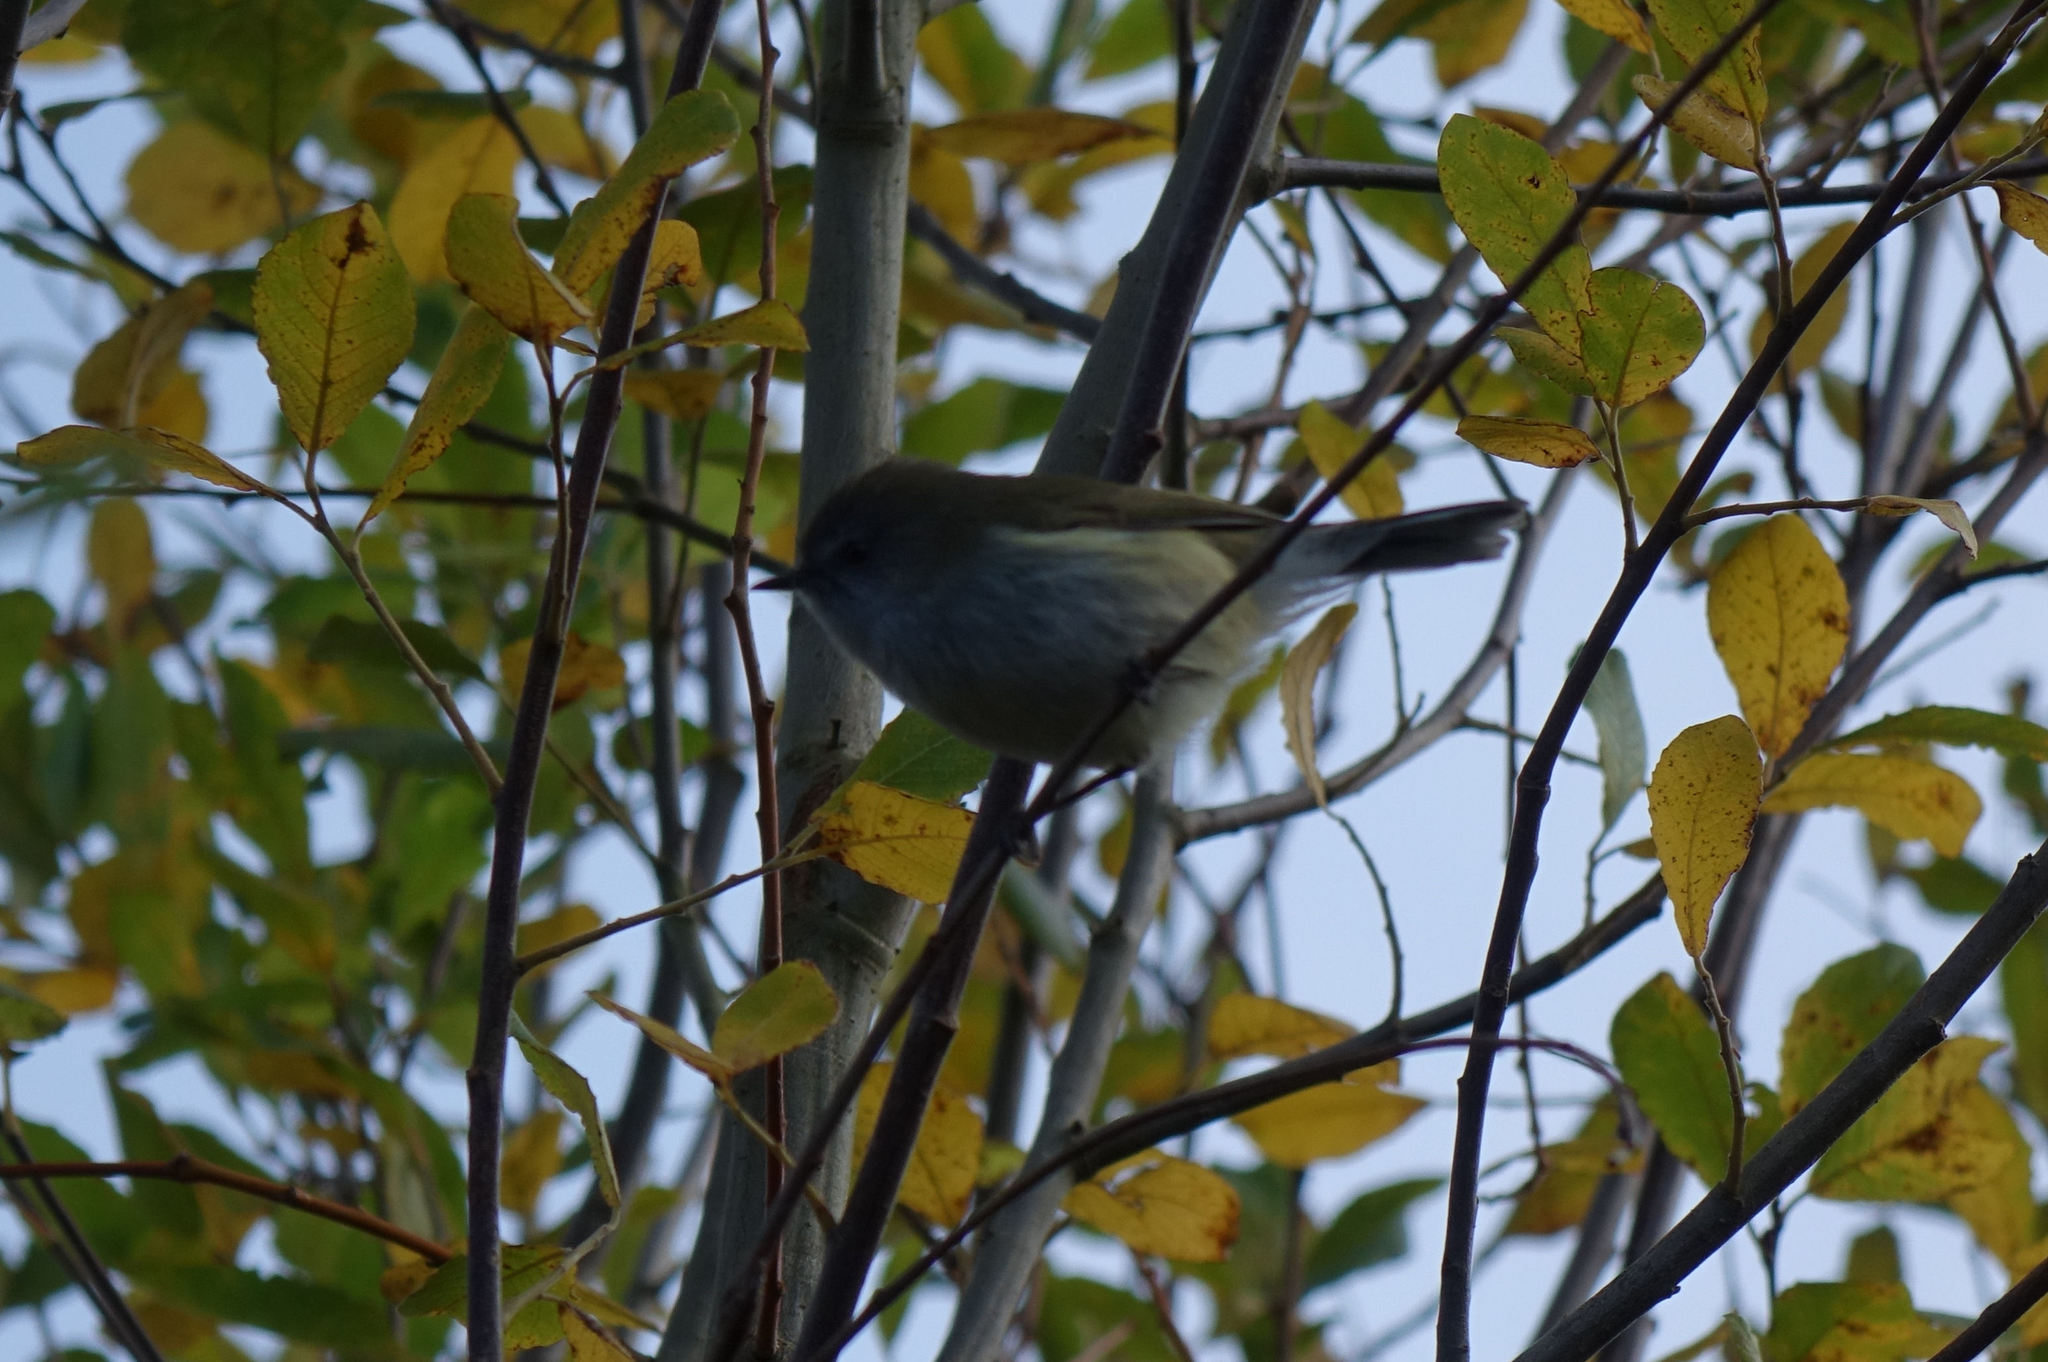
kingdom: Animalia
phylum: Chordata
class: Aves
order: Passeriformes
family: Acanthizidae
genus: Gerygone
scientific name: Gerygone igata
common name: Grey gerygone
